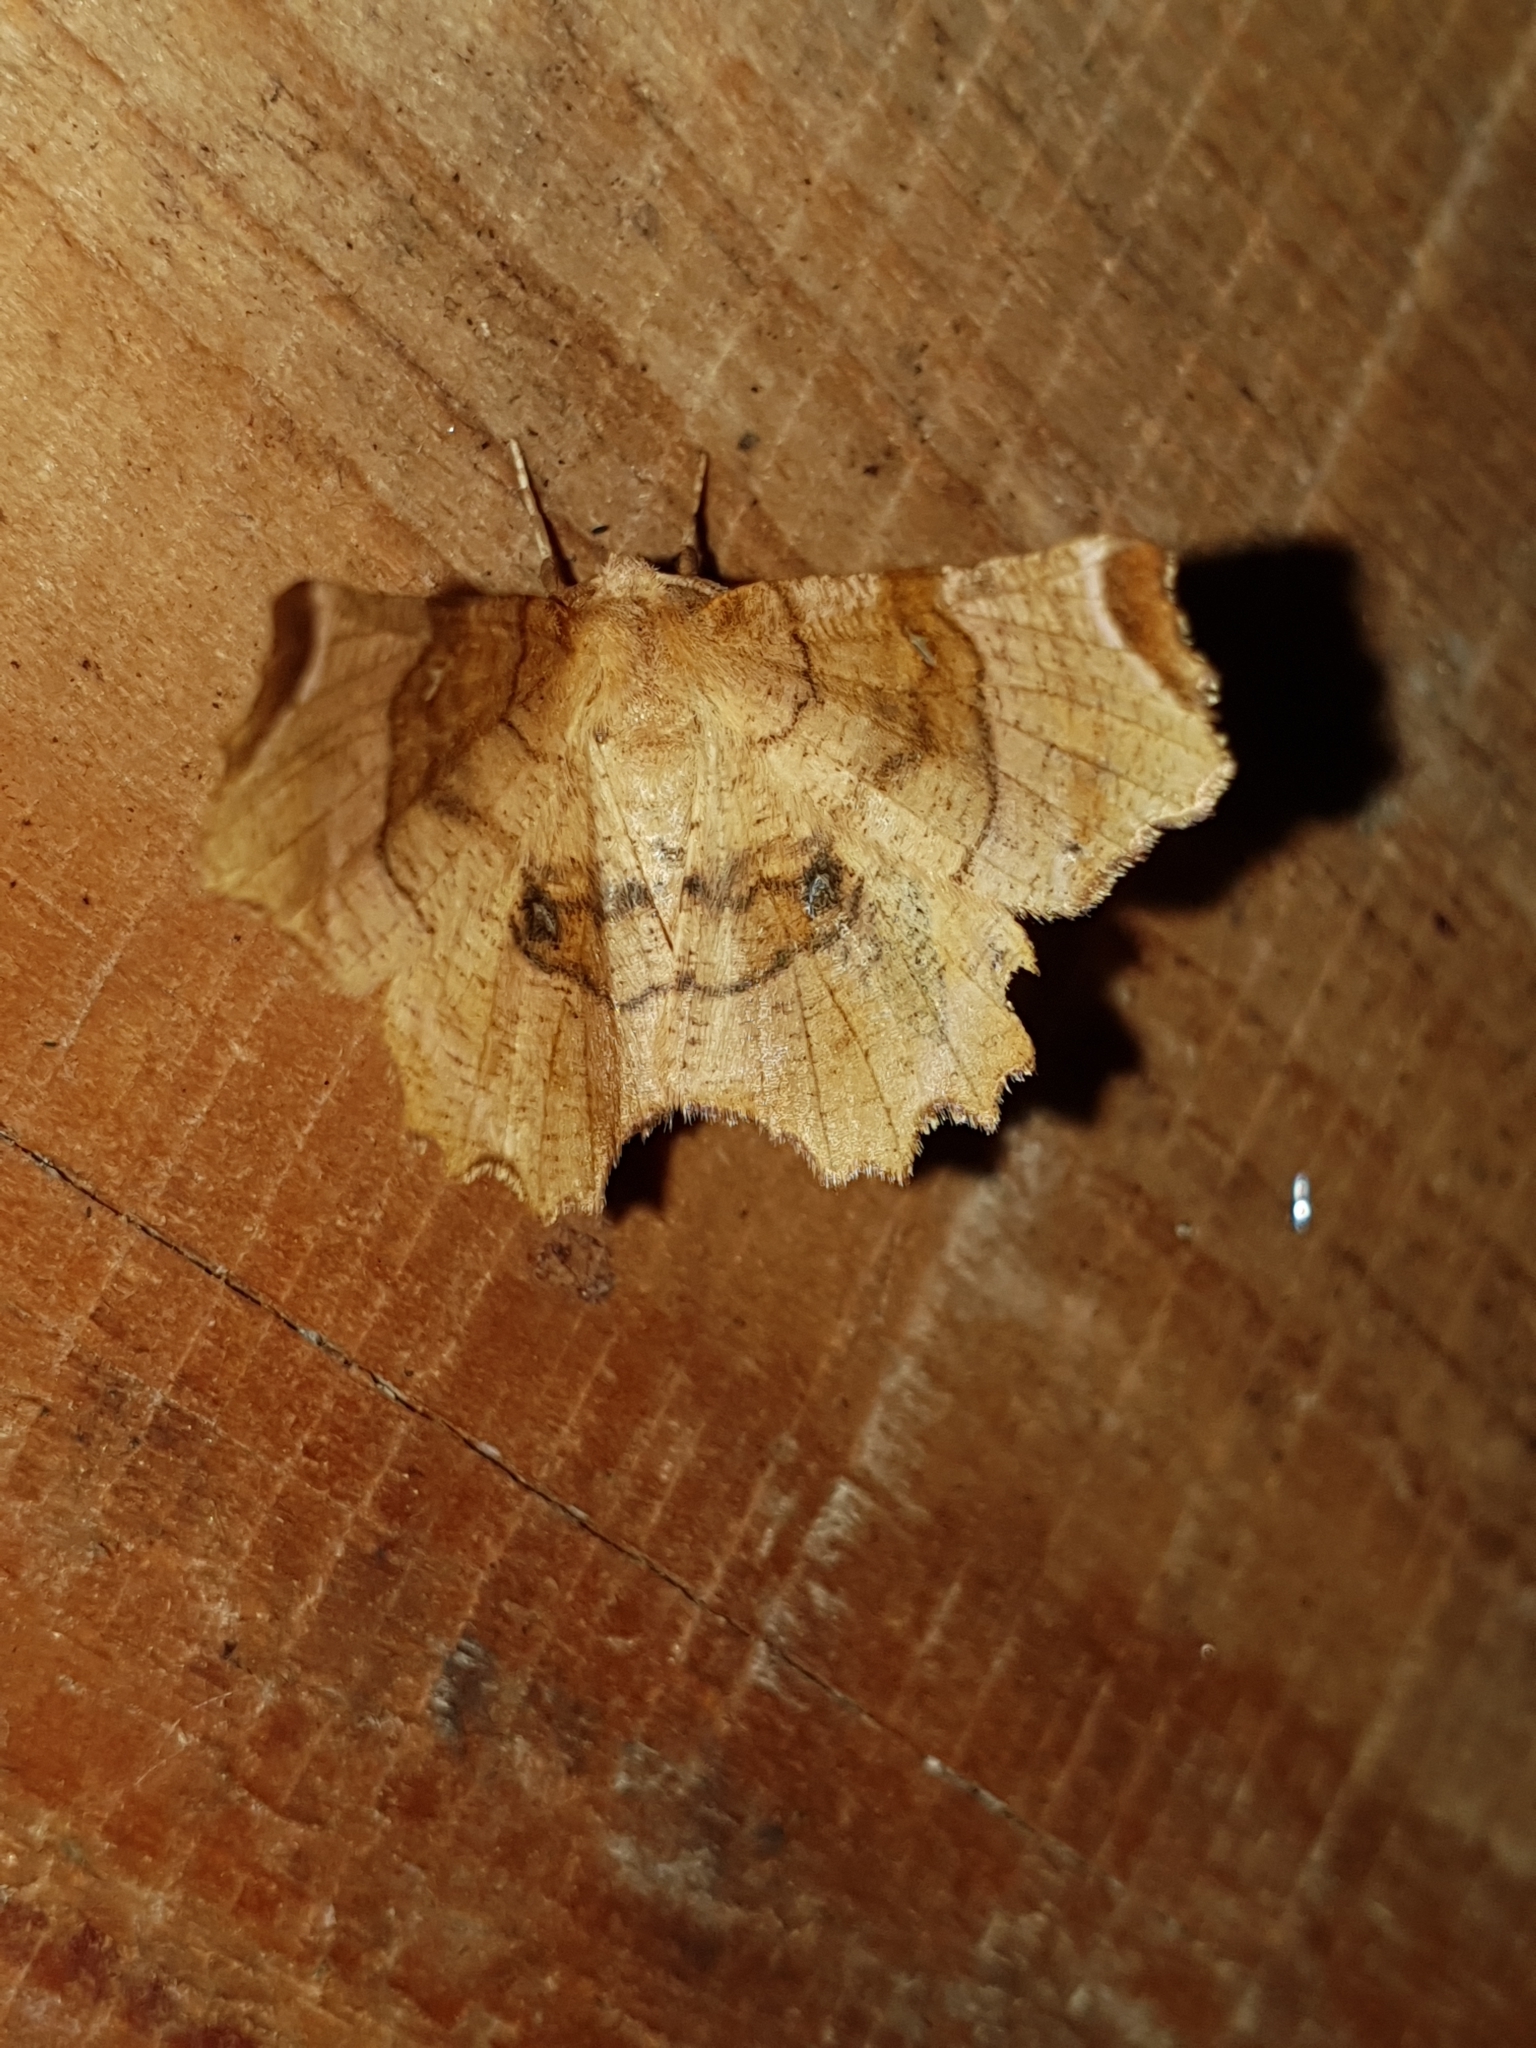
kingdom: Animalia
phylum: Arthropoda
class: Insecta
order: Lepidoptera
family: Geometridae
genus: Selenia
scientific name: Selenia lunularia
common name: Lunar thorn
